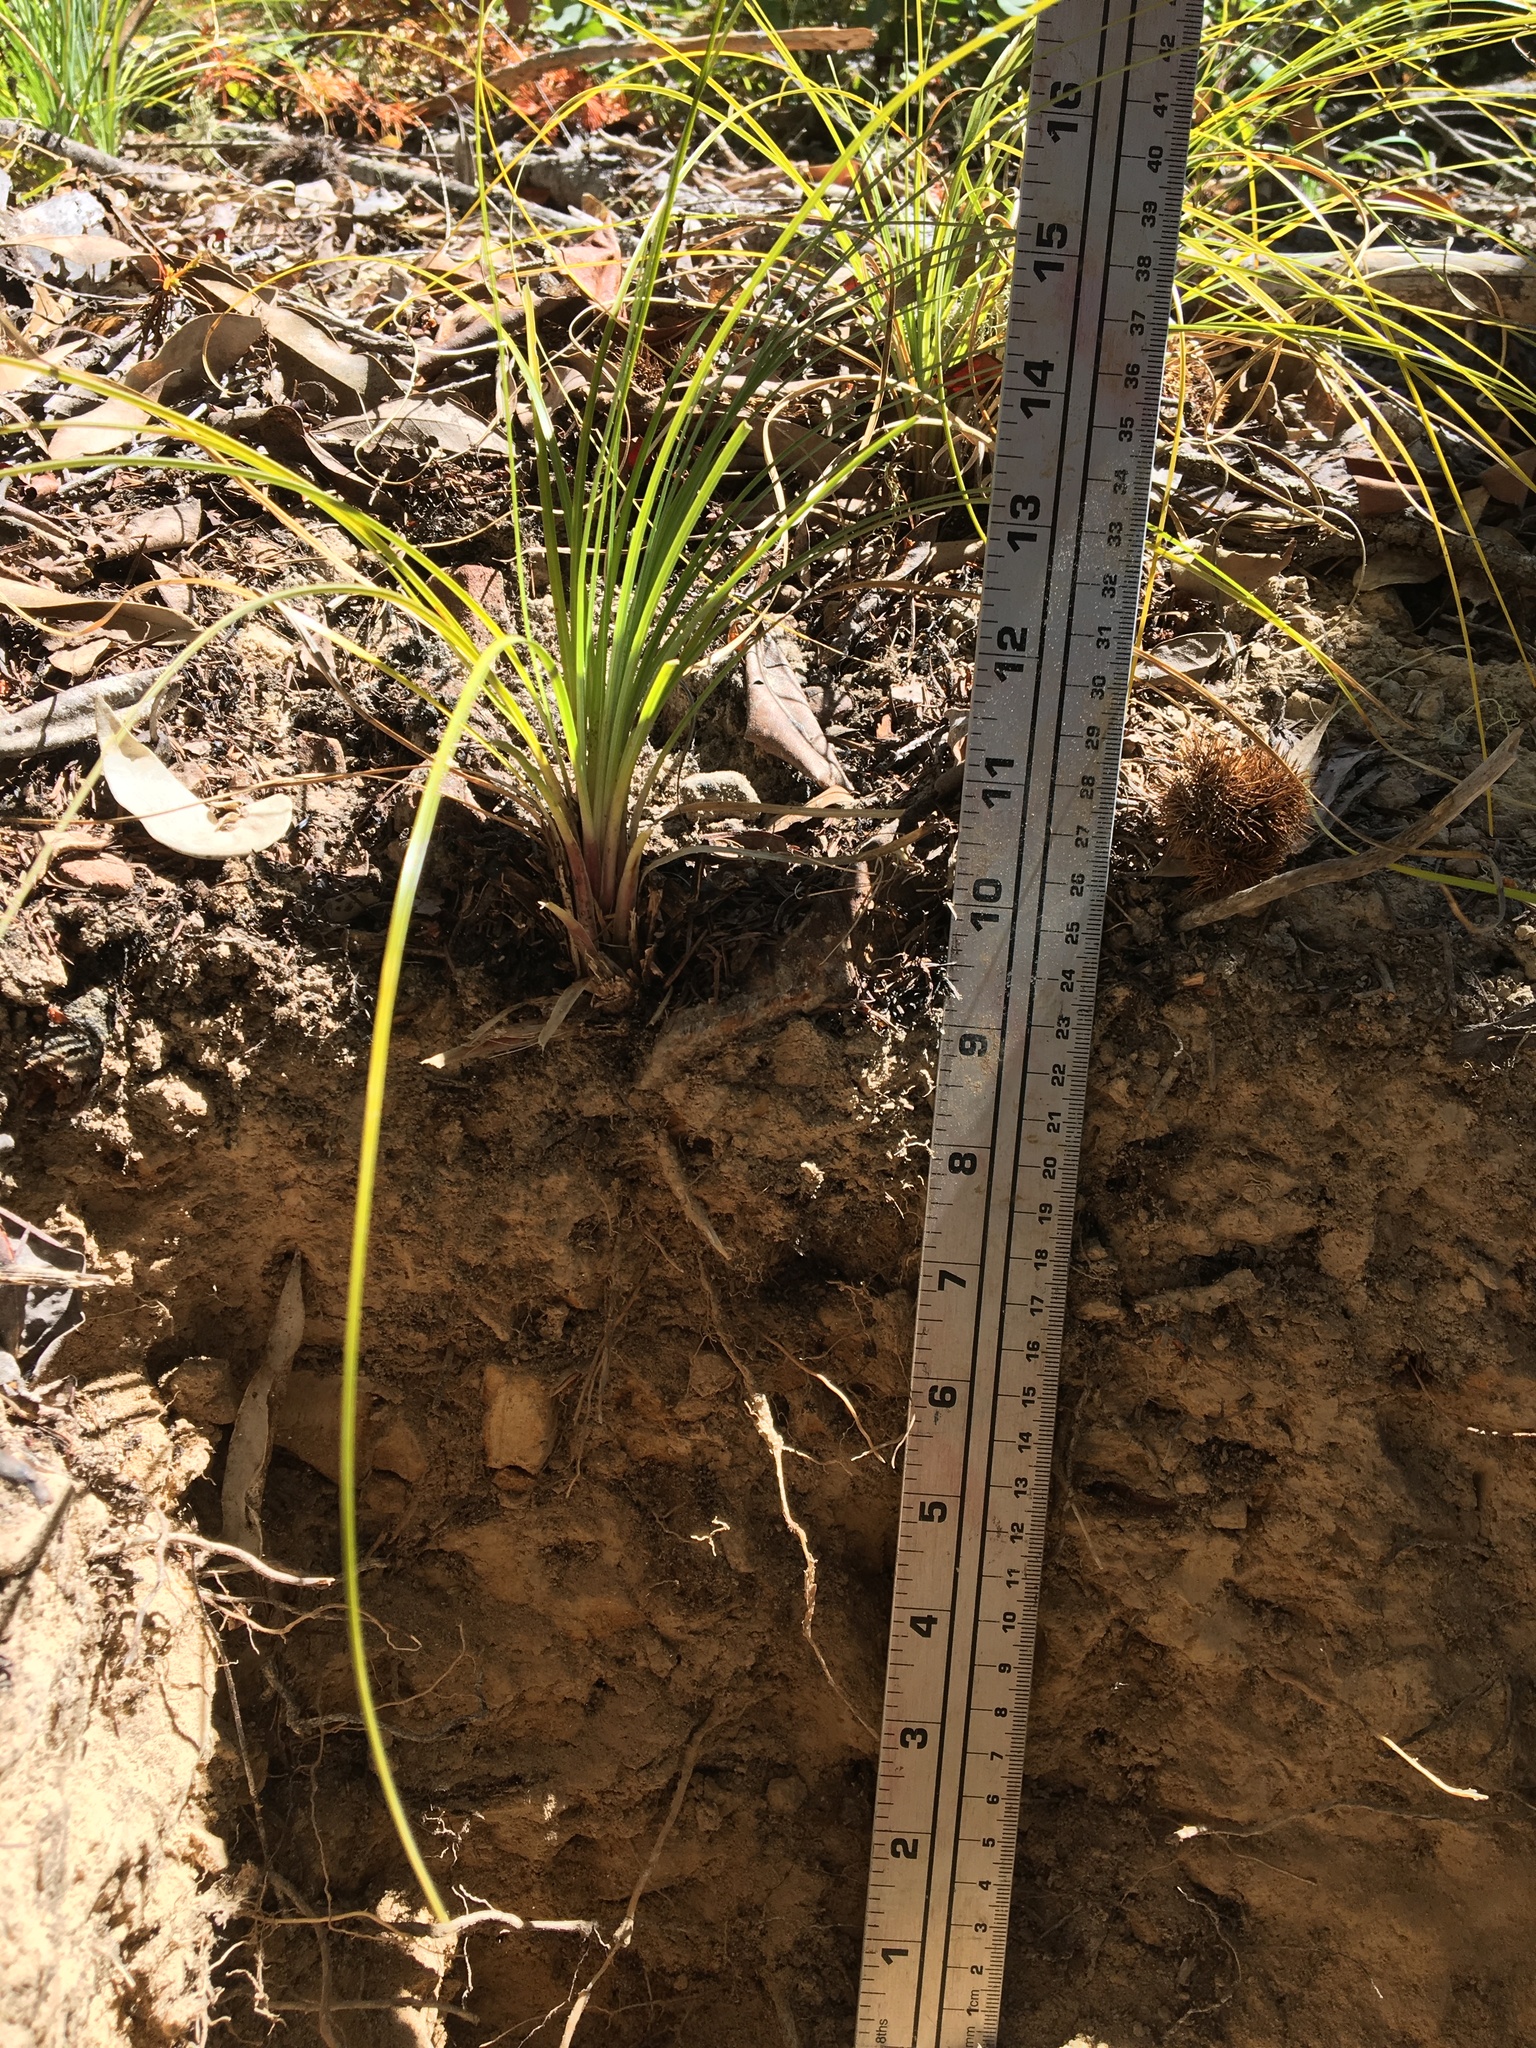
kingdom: Plantae
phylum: Tracheophyta
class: Liliopsida
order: Liliales
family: Melanthiaceae
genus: Xerophyllum
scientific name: Xerophyllum tenax
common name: Bear-grass
